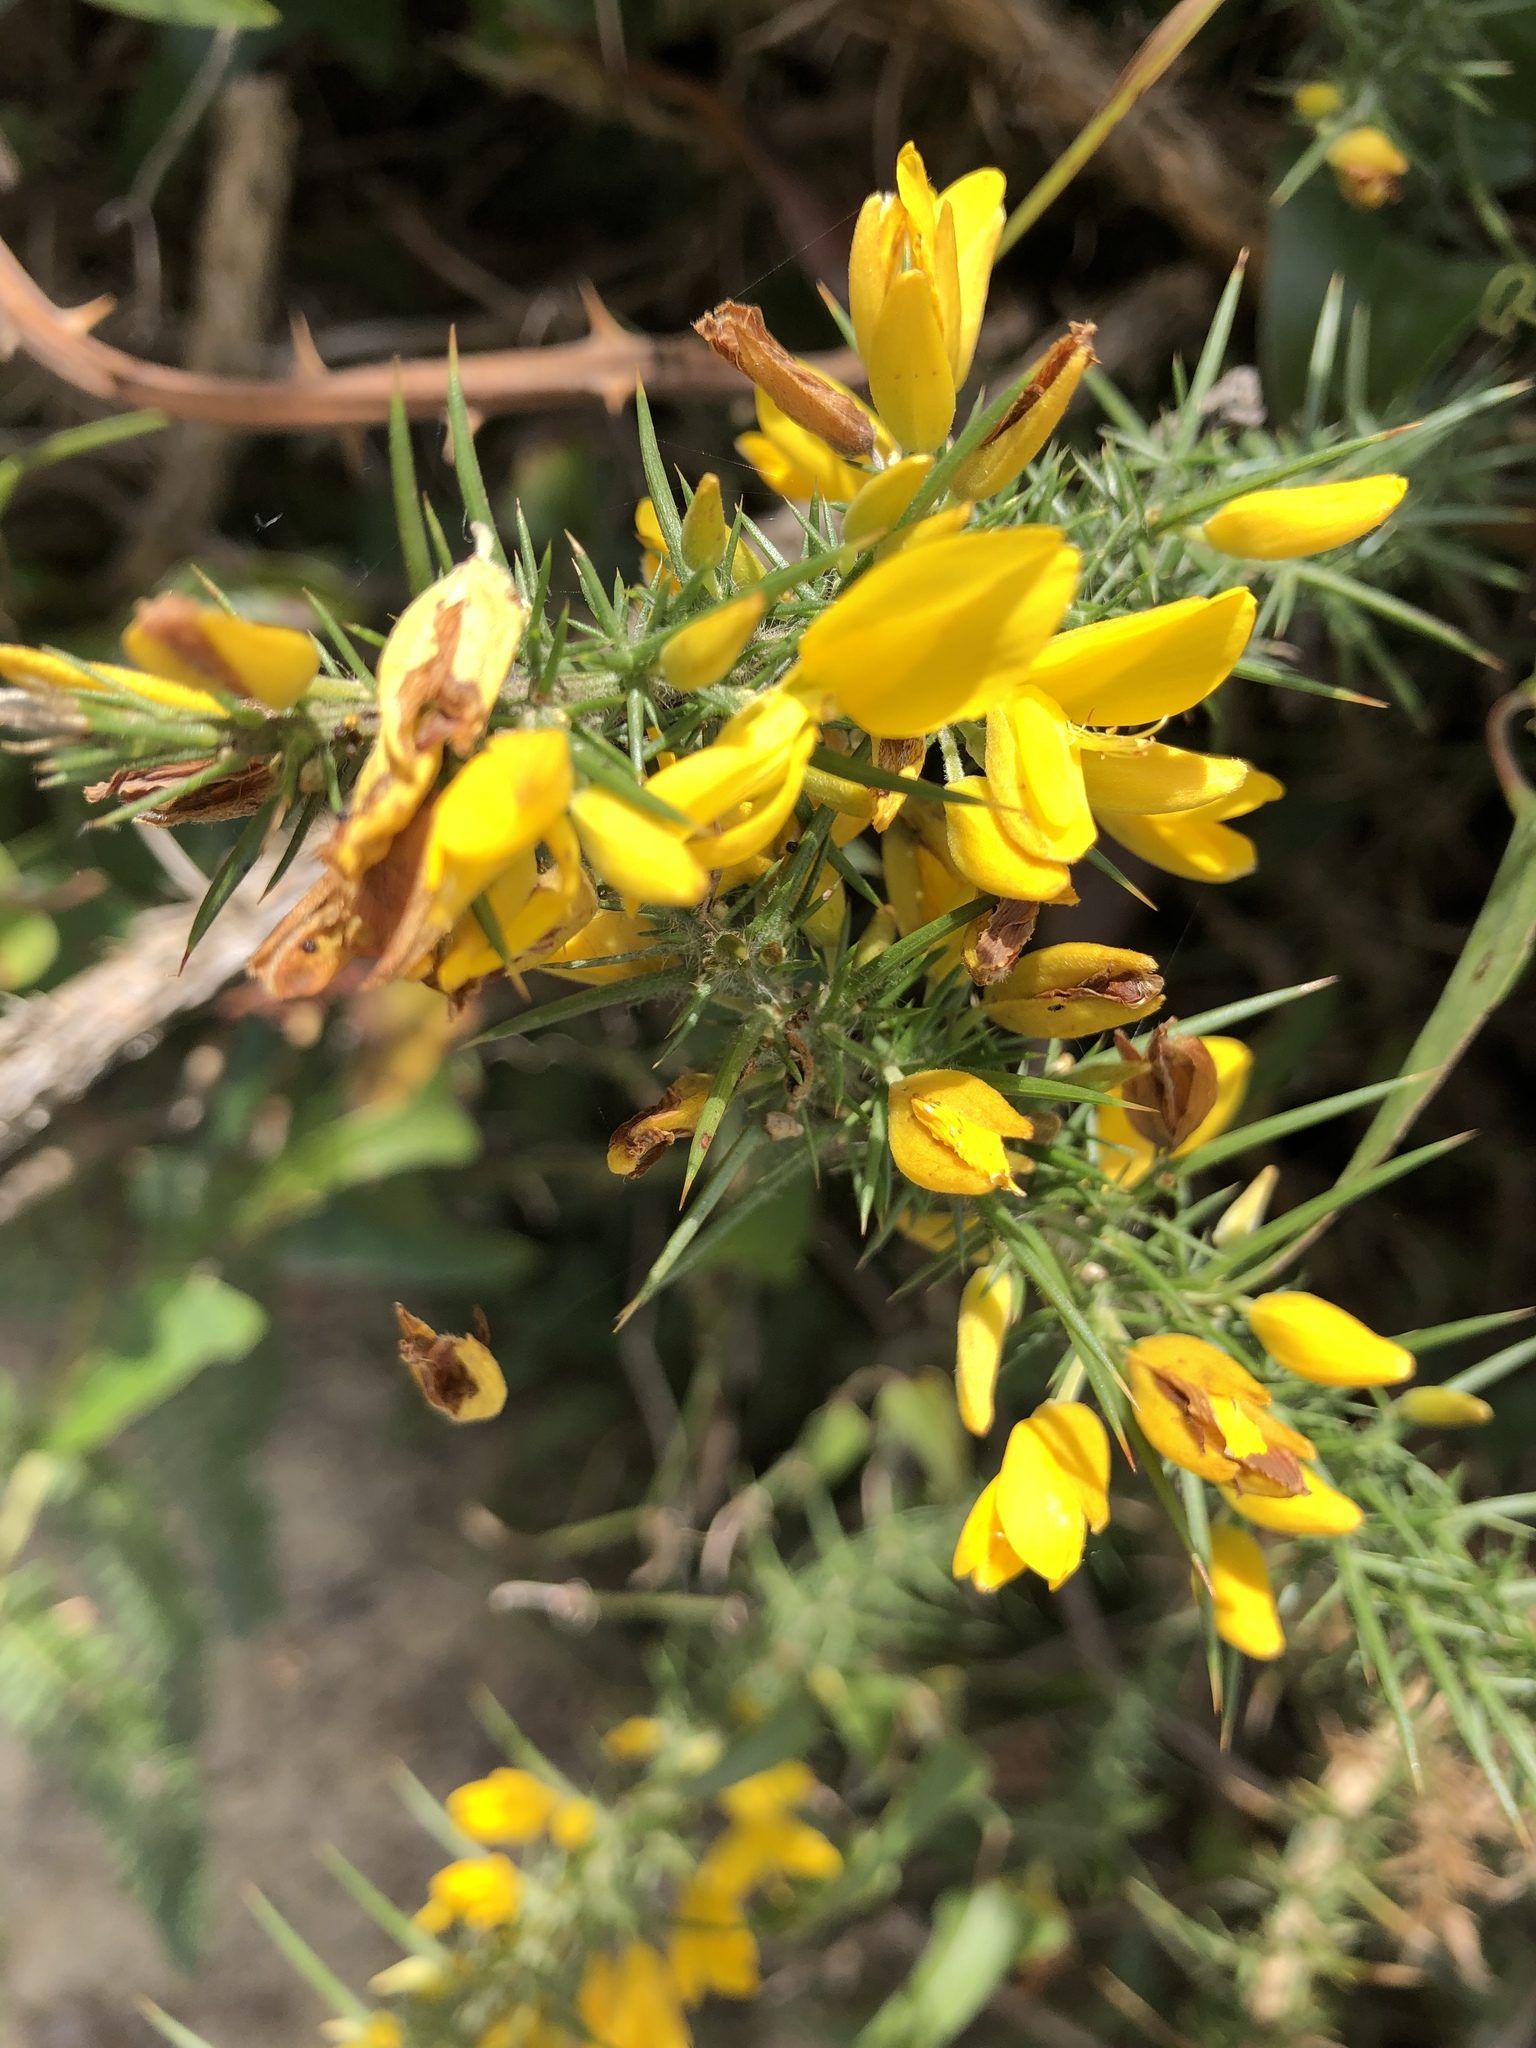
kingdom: Plantae
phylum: Tracheophyta
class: Magnoliopsida
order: Fabales
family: Fabaceae
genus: Ulex
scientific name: Ulex europaeus
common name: Common gorse
